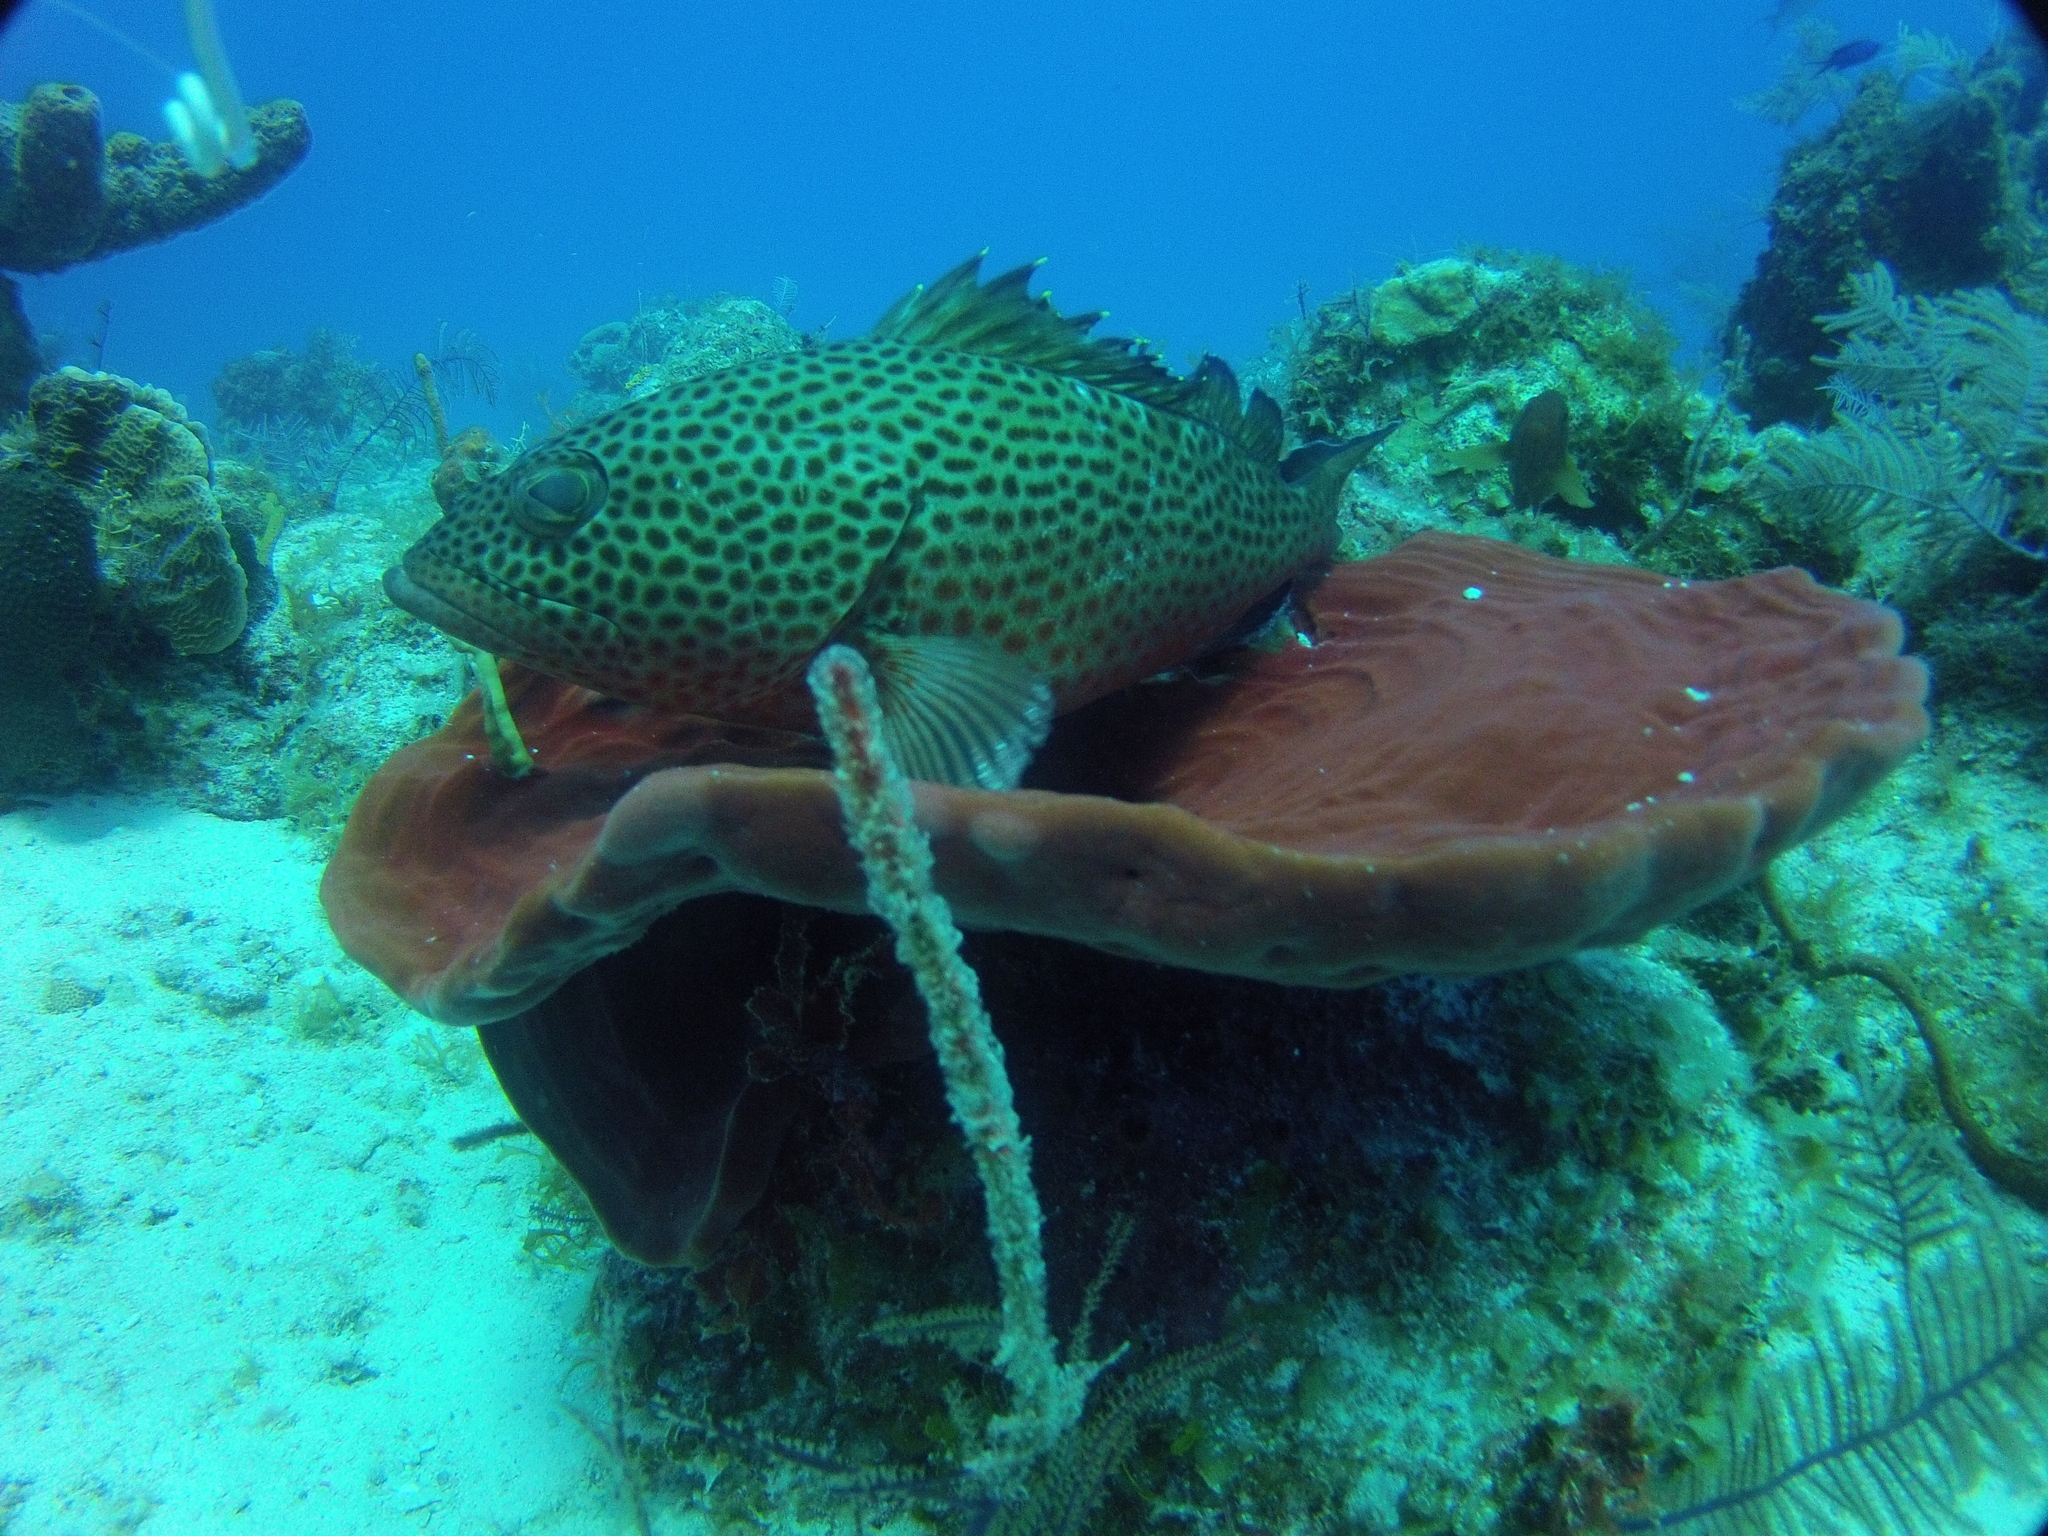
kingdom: Animalia
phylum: Chordata
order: Perciformes
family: Serranidae
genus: Epinephelus
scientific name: Epinephelus guttatus
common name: Red hind
